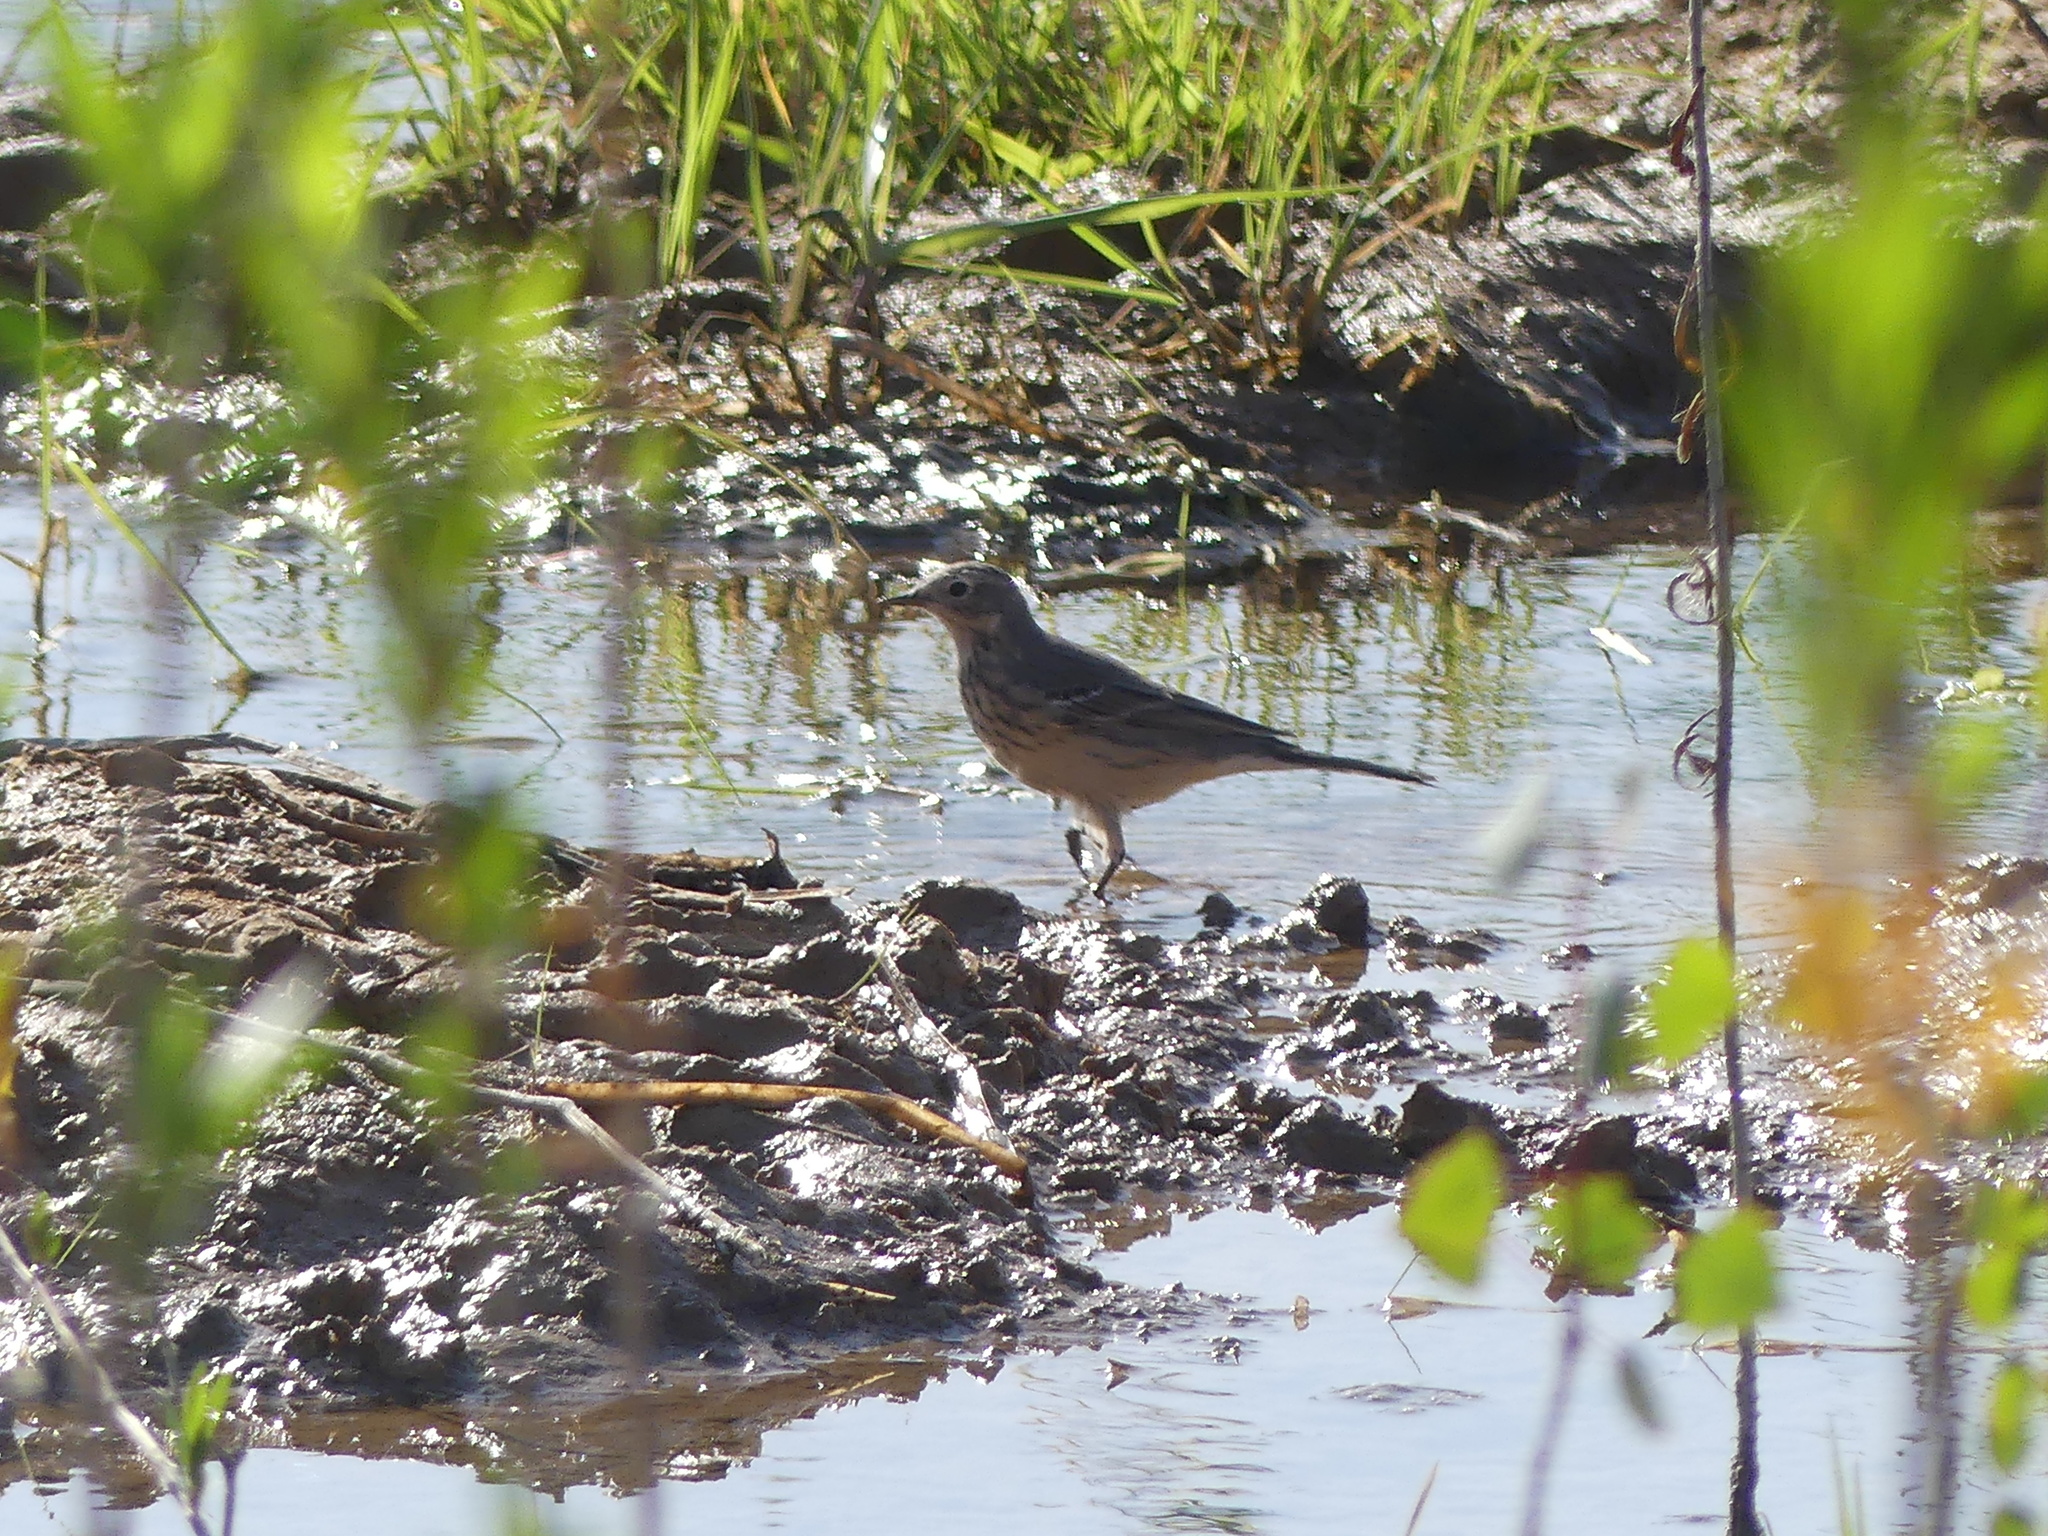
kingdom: Animalia
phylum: Chordata
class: Aves
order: Passeriformes
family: Motacillidae
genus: Anthus
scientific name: Anthus rubescens
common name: Buff-bellied pipit
